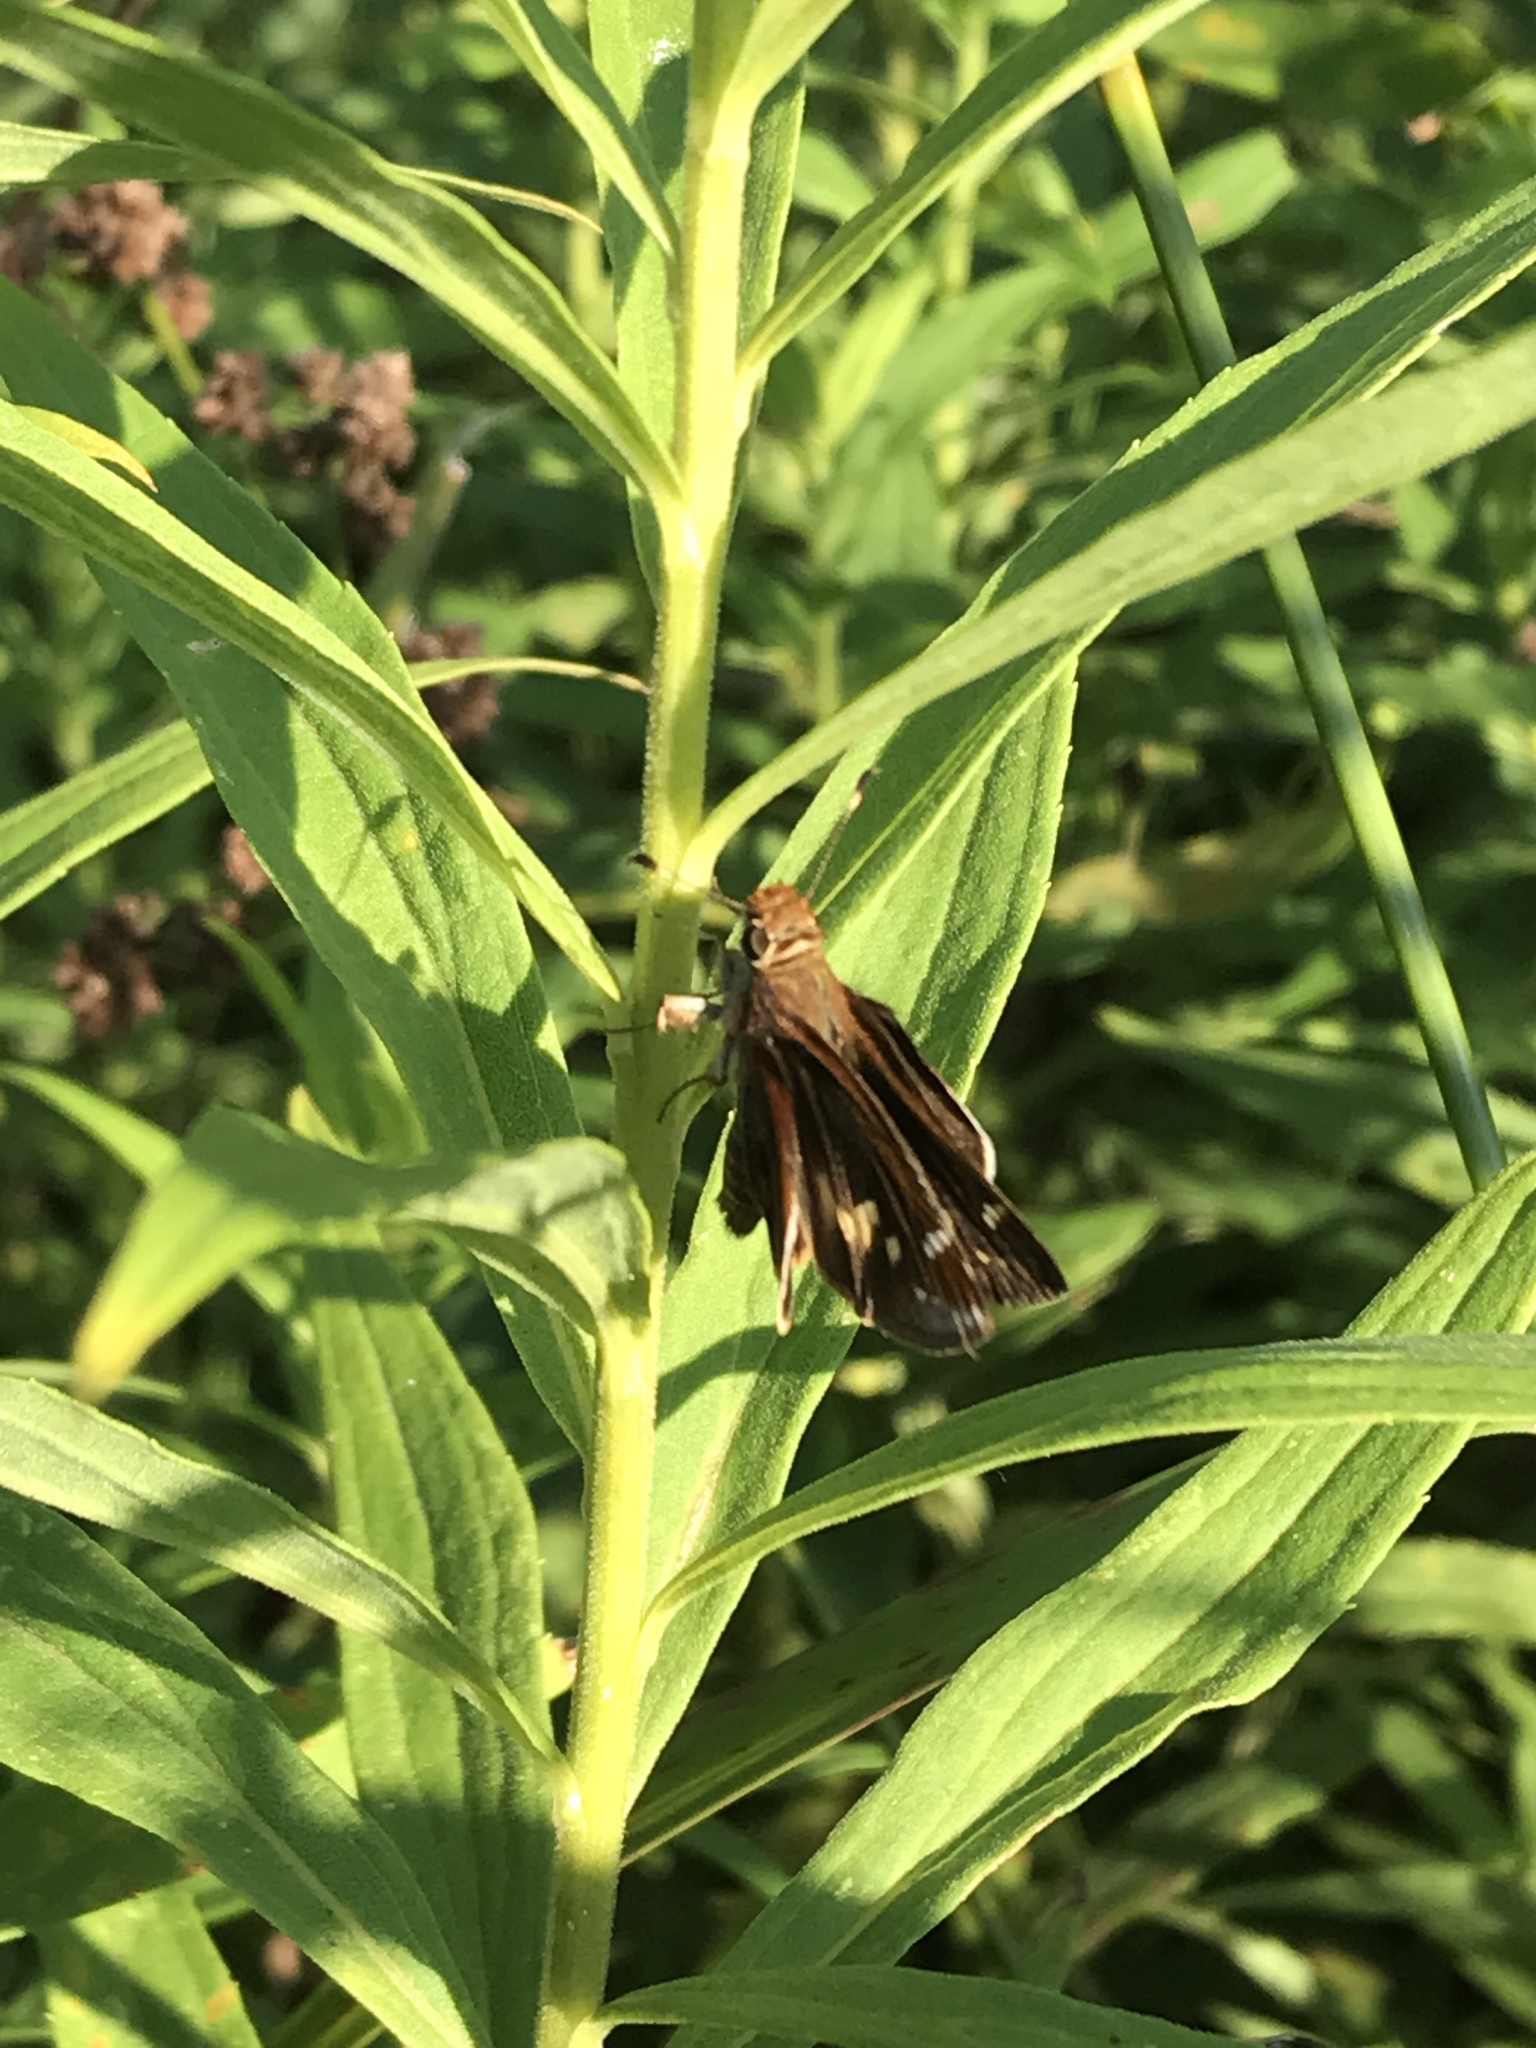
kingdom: Animalia
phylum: Arthropoda
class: Insecta
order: Lepidoptera
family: Hesperiidae
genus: Lon
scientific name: Lon zabulon
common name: Zabulon skipper
